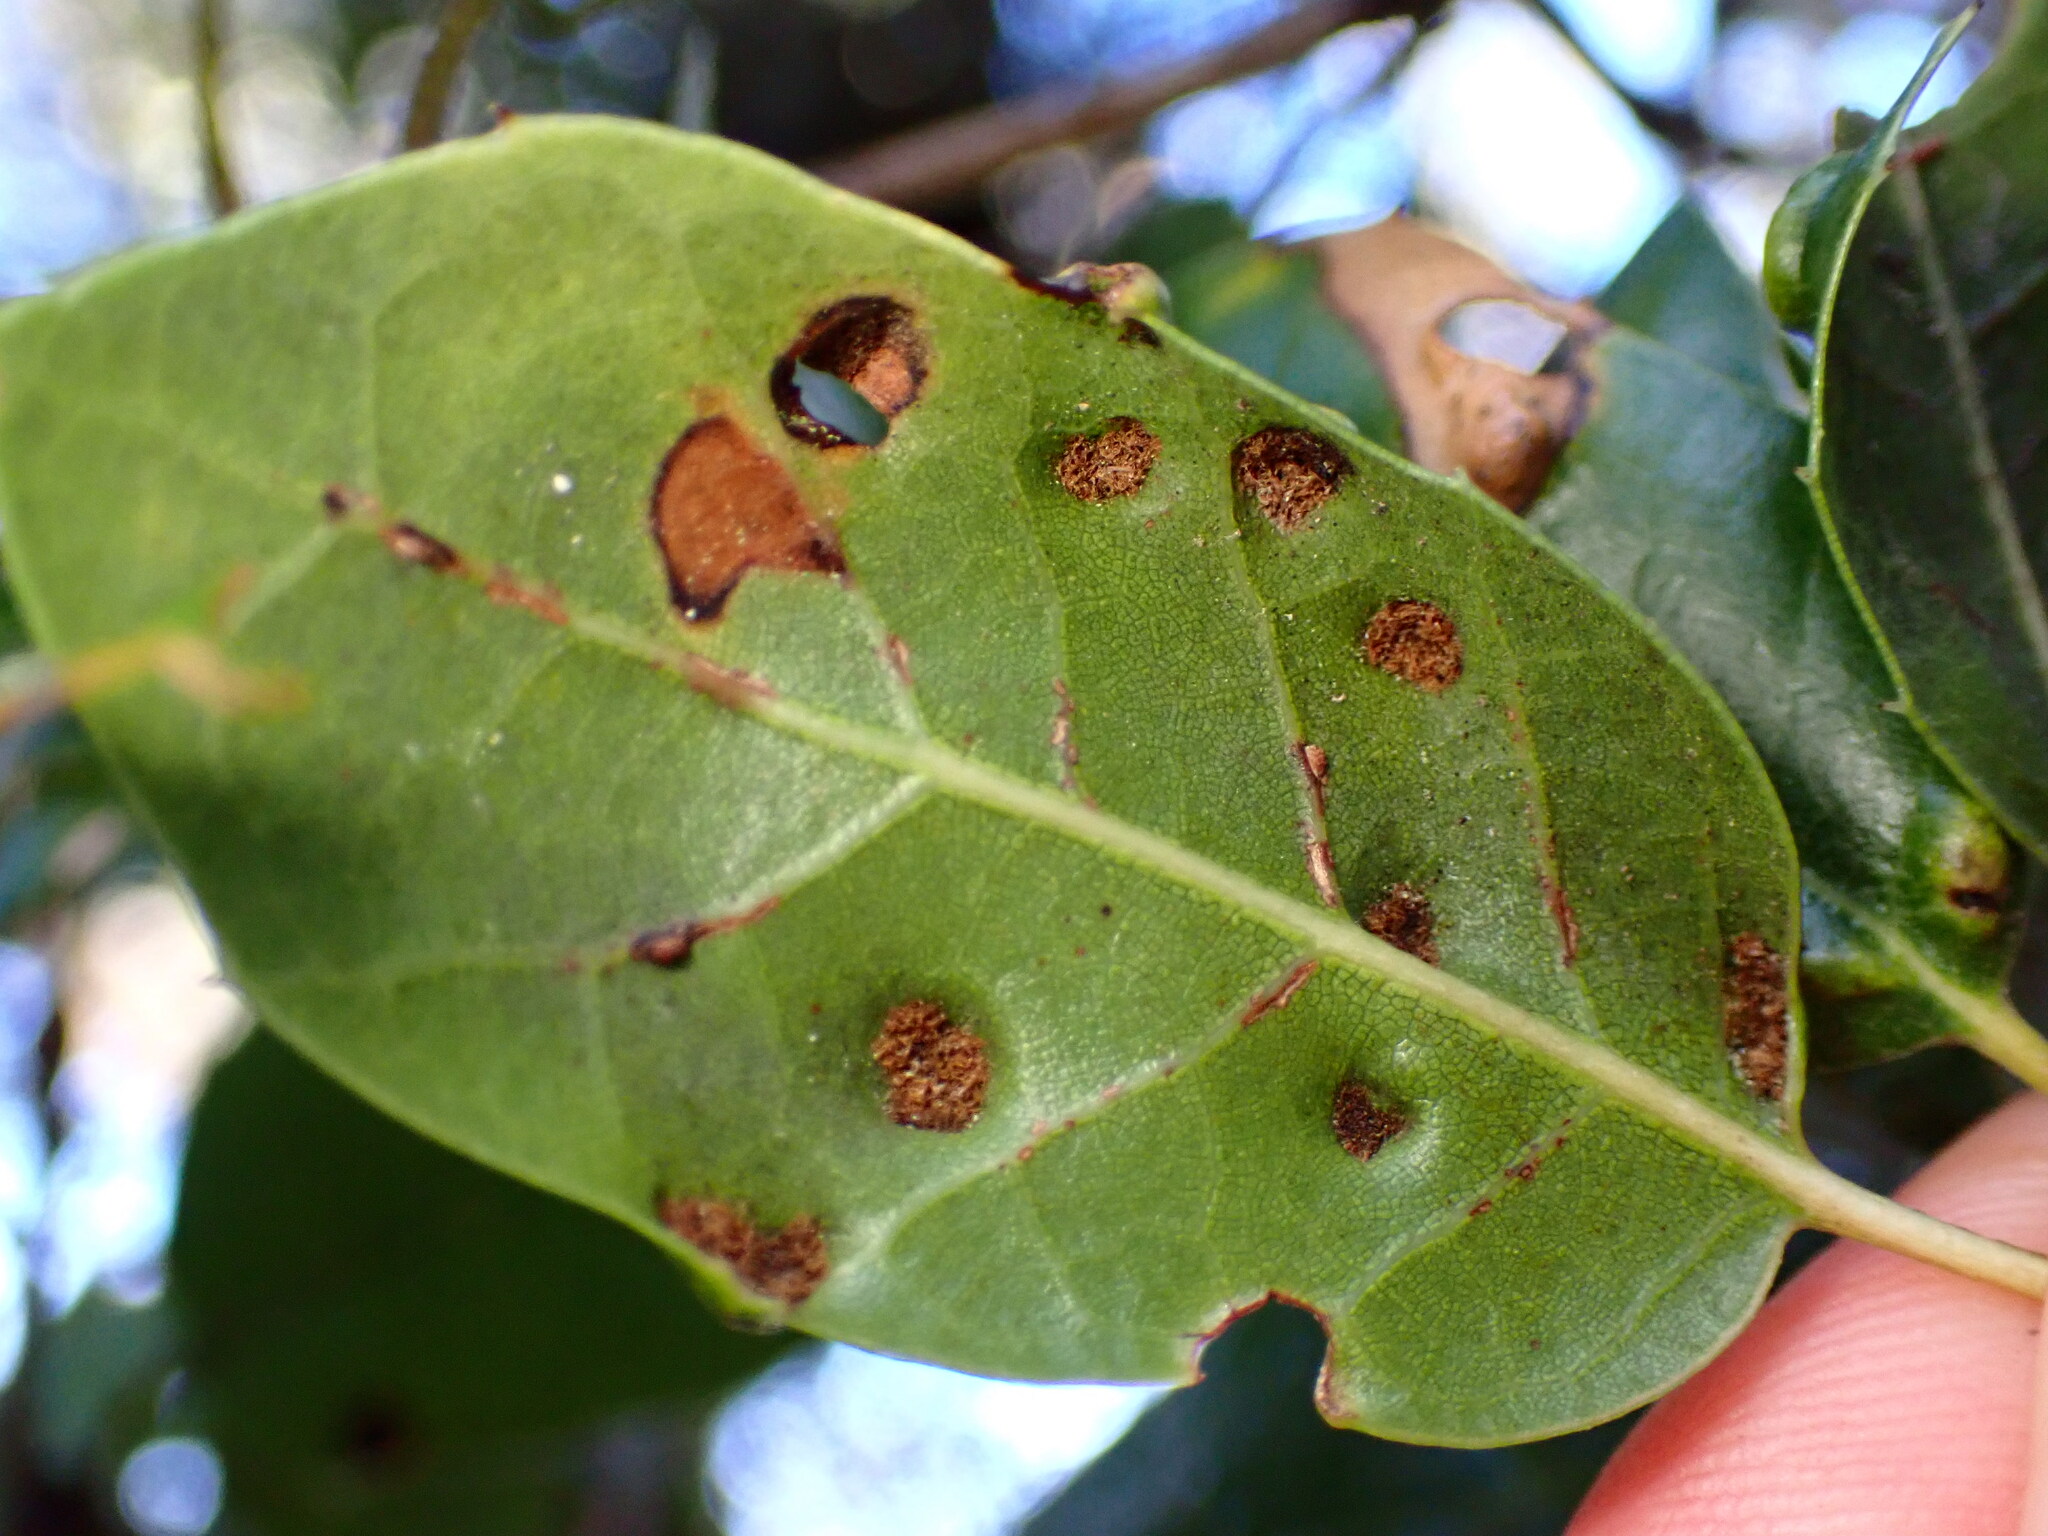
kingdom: Animalia
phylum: Arthropoda
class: Arachnida
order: Trombidiformes
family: Eriophyidae
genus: Aceria
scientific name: Aceria
